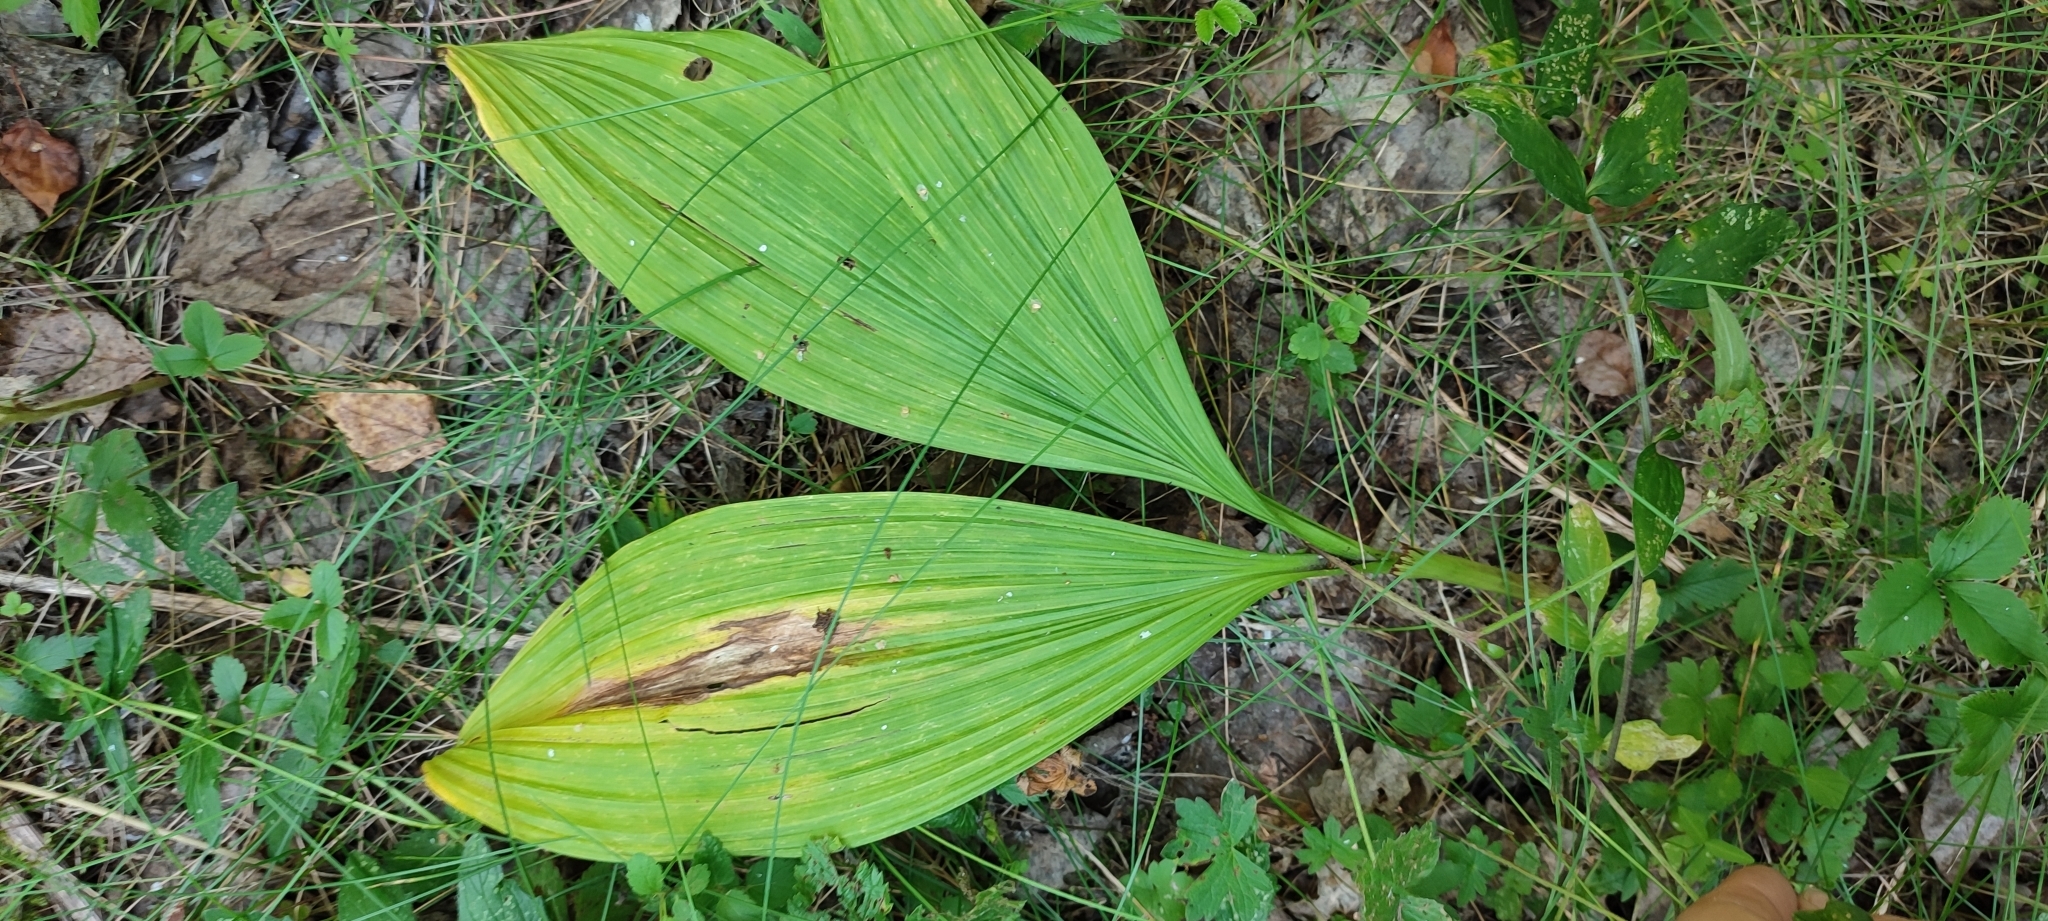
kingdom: Plantae
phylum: Tracheophyta
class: Liliopsida
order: Liliales
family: Melanthiaceae
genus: Veratrum
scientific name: Veratrum lobelianum
